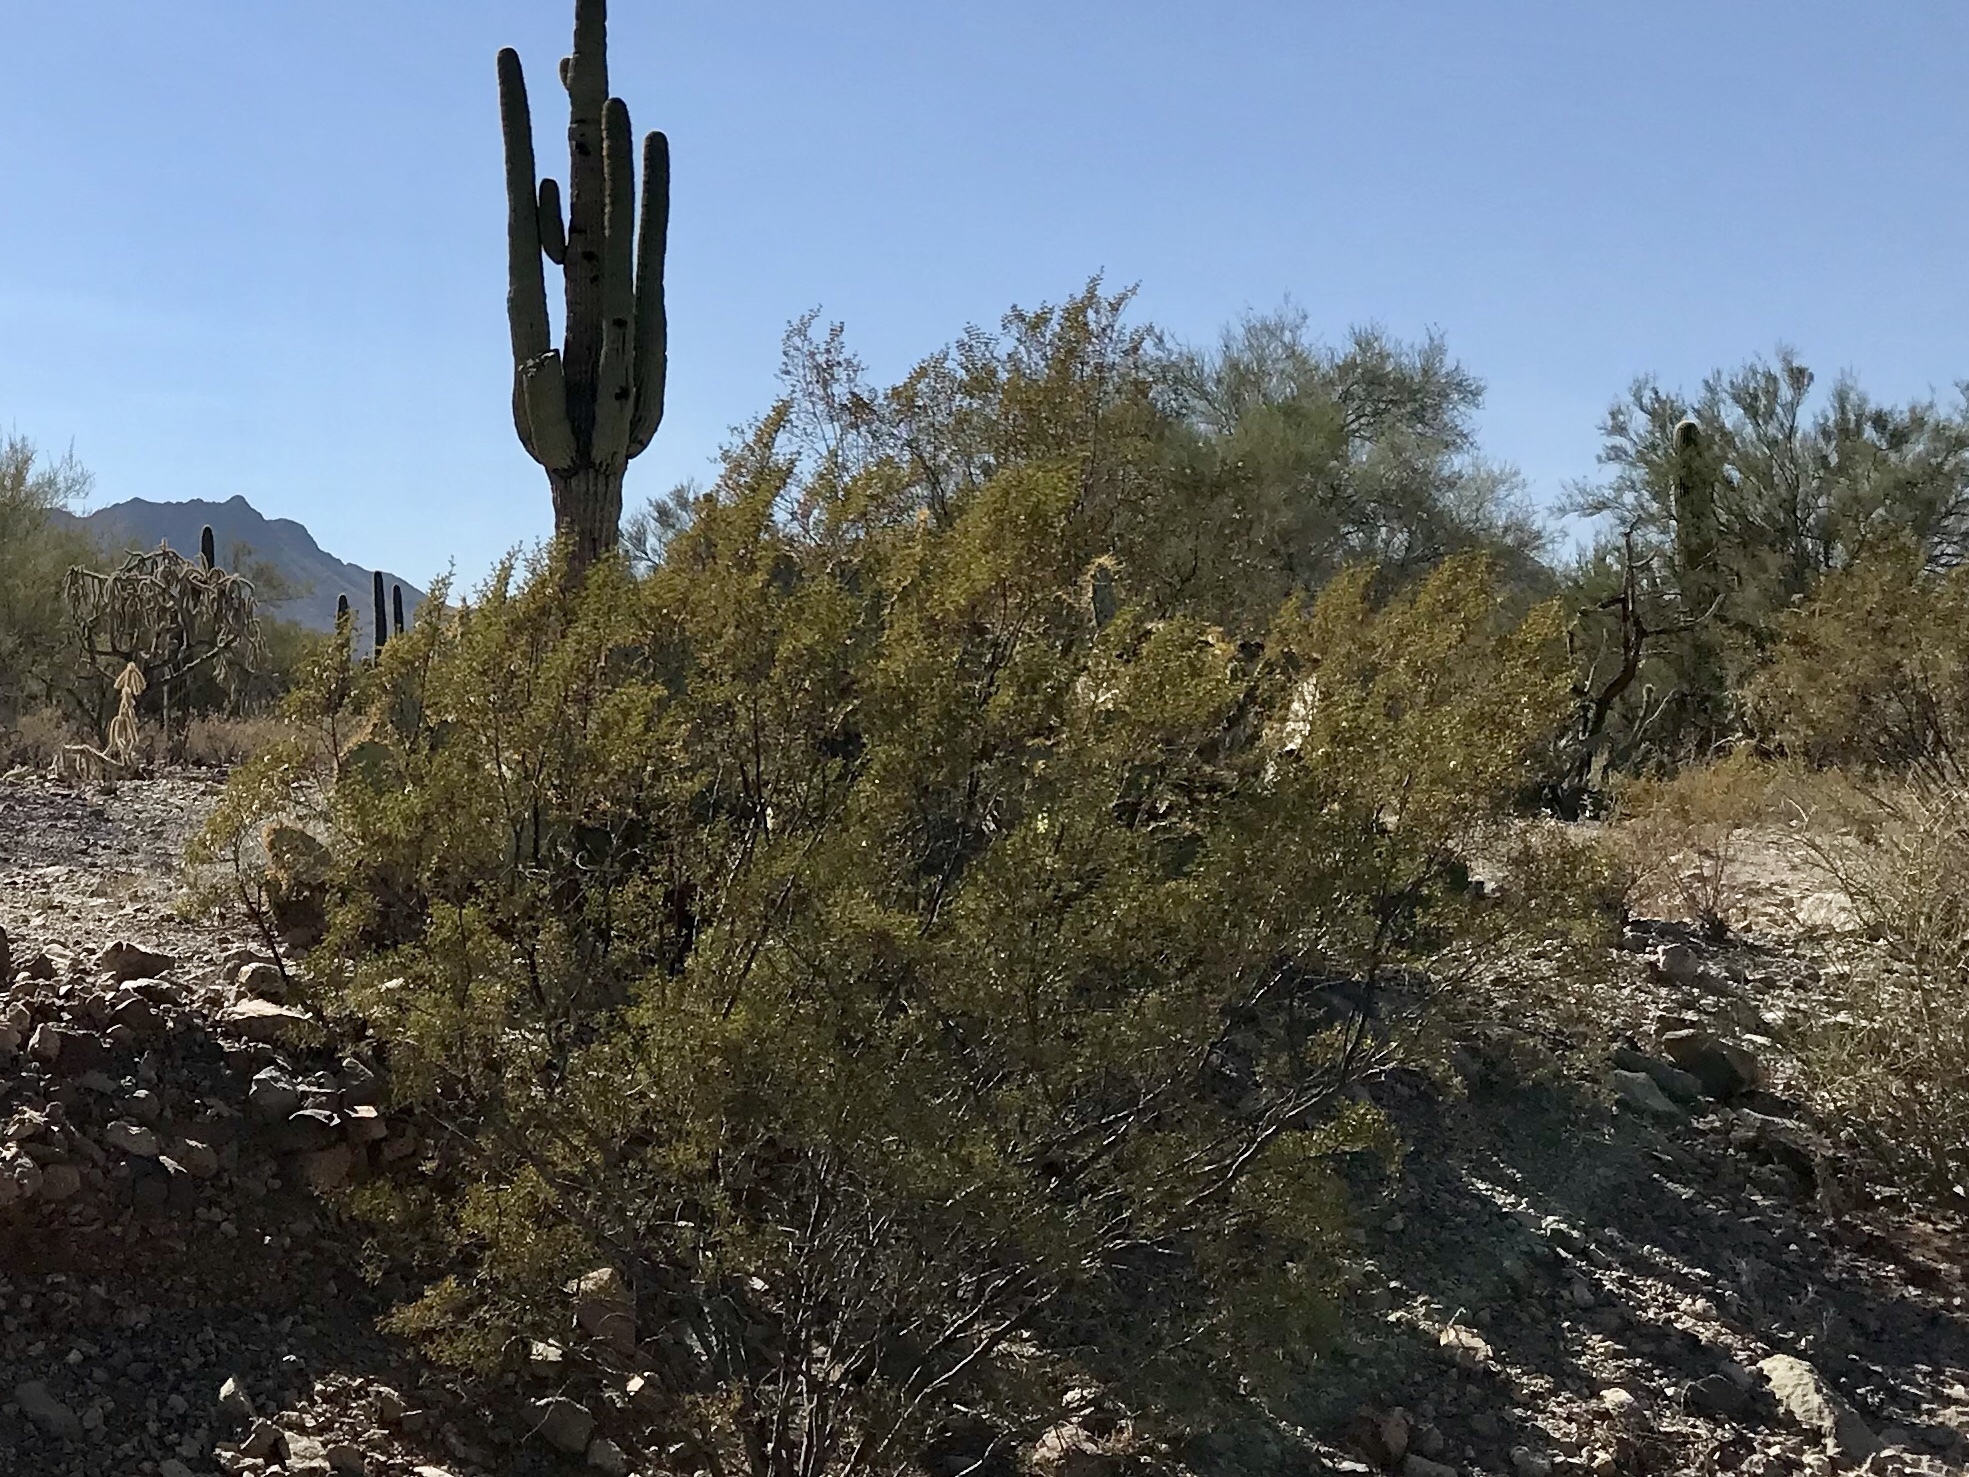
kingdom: Plantae
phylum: Tracheophyta
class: Magnoliopsida
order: Zygophyllales
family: Zygophyllaceae
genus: Larrea
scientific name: Larrea tridentata
